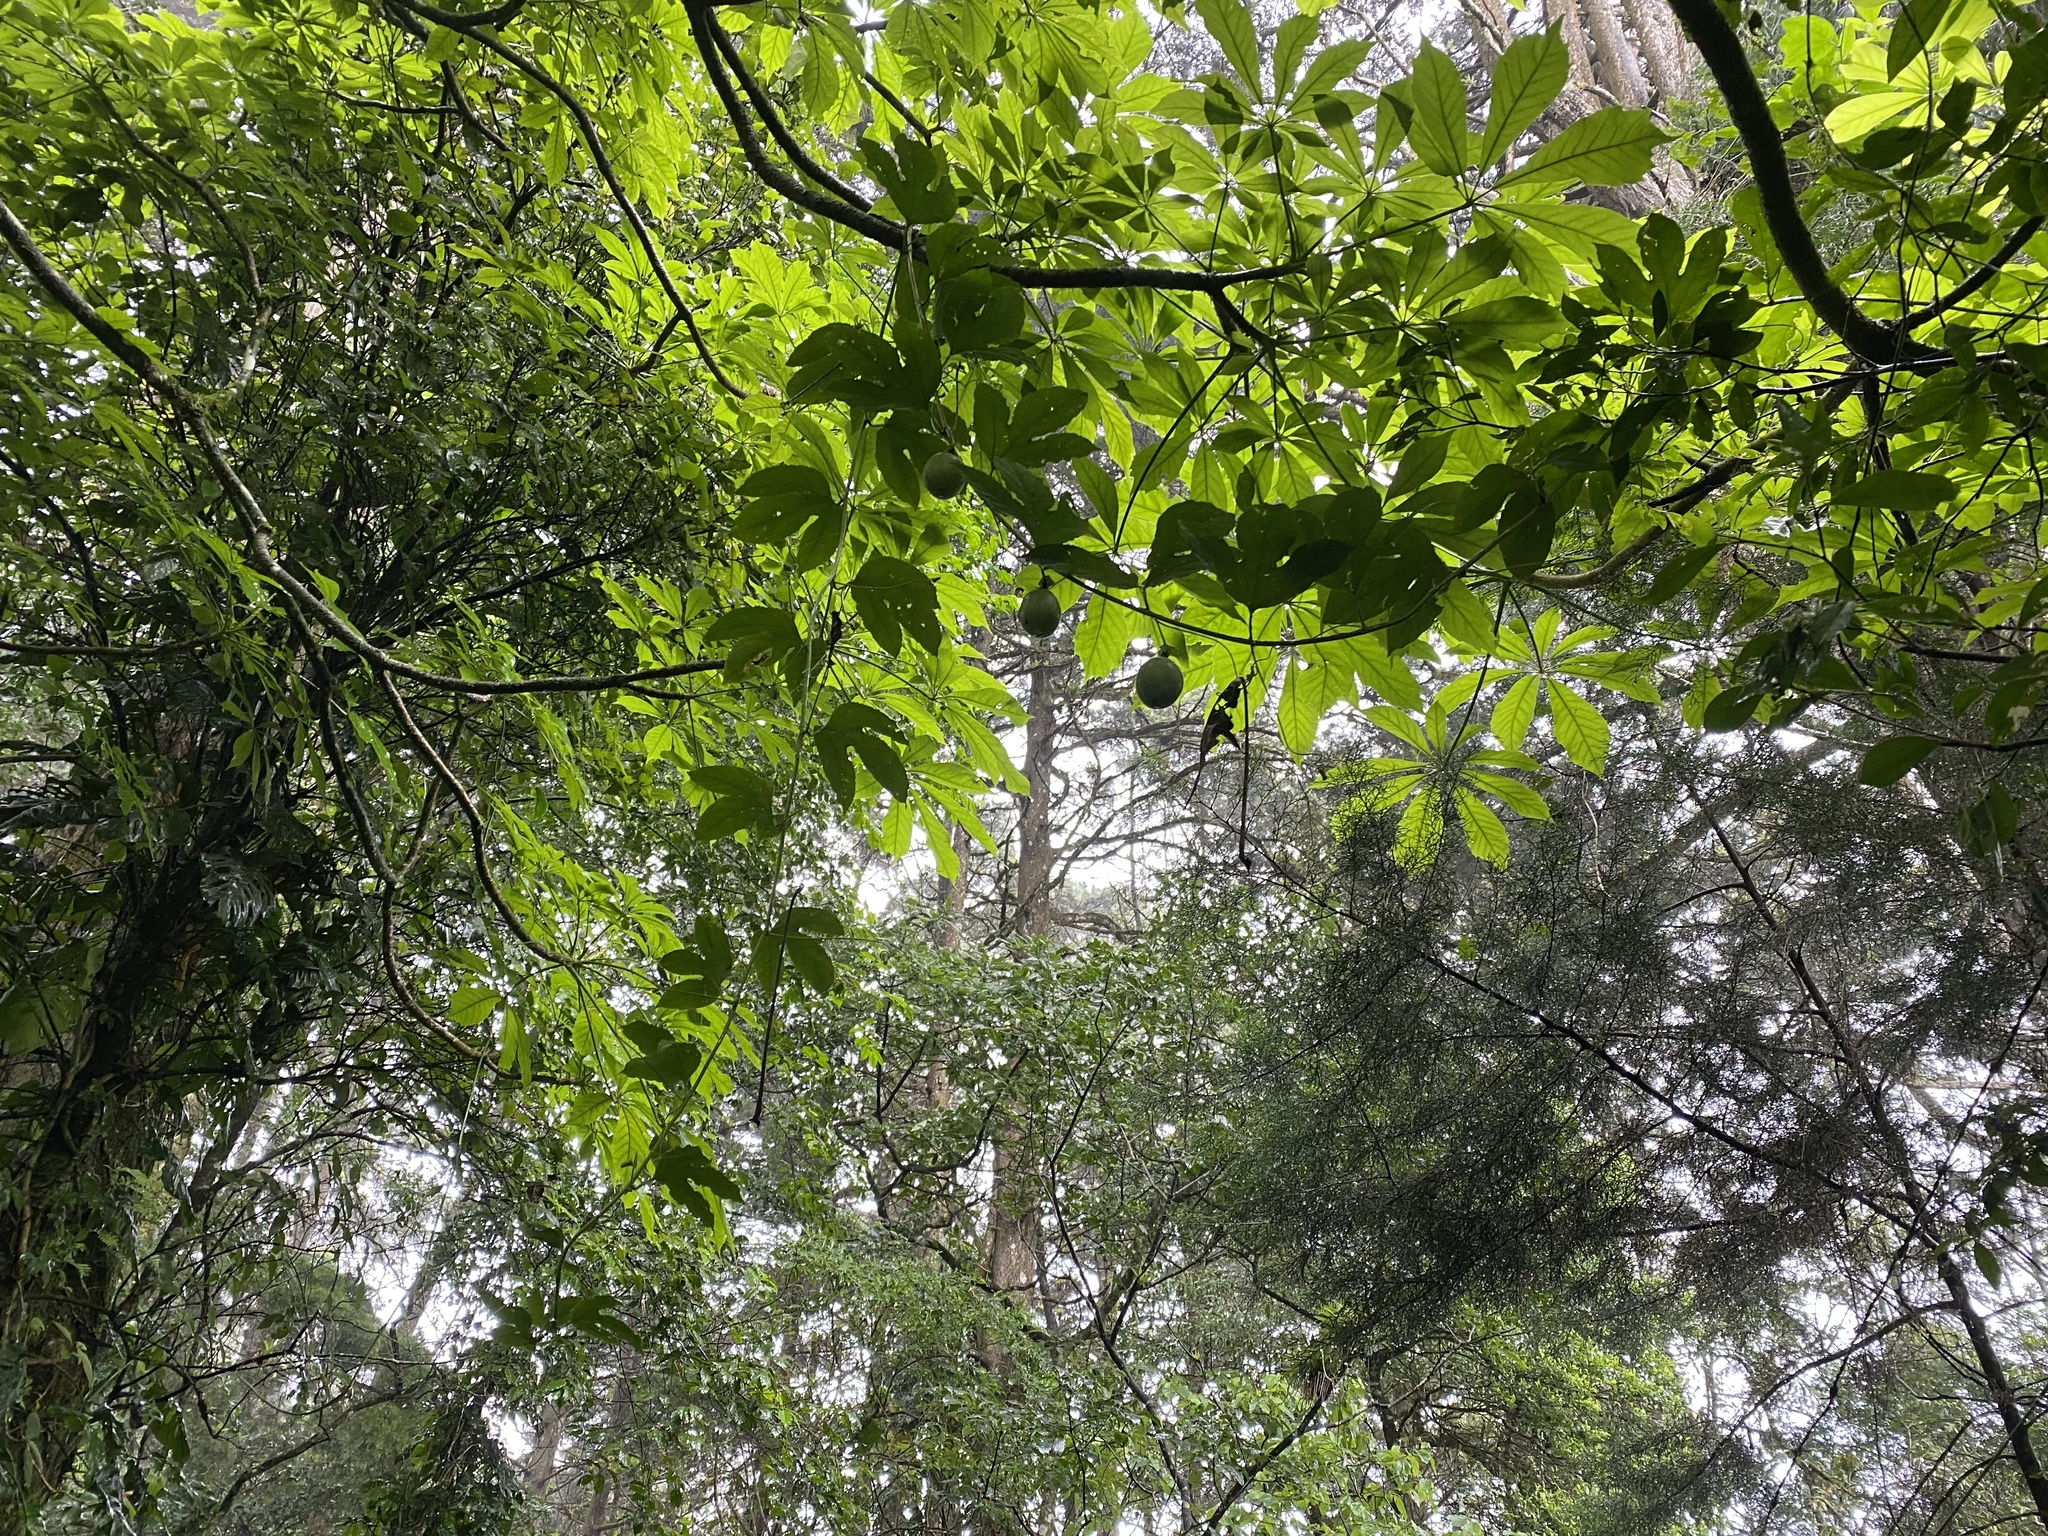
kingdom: Plantae
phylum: Tracheophyta
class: Magnoliopsida
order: Malpighiales
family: Passifloraceae
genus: Passiflora
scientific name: Passiflora edulis
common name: Purple granadilla
